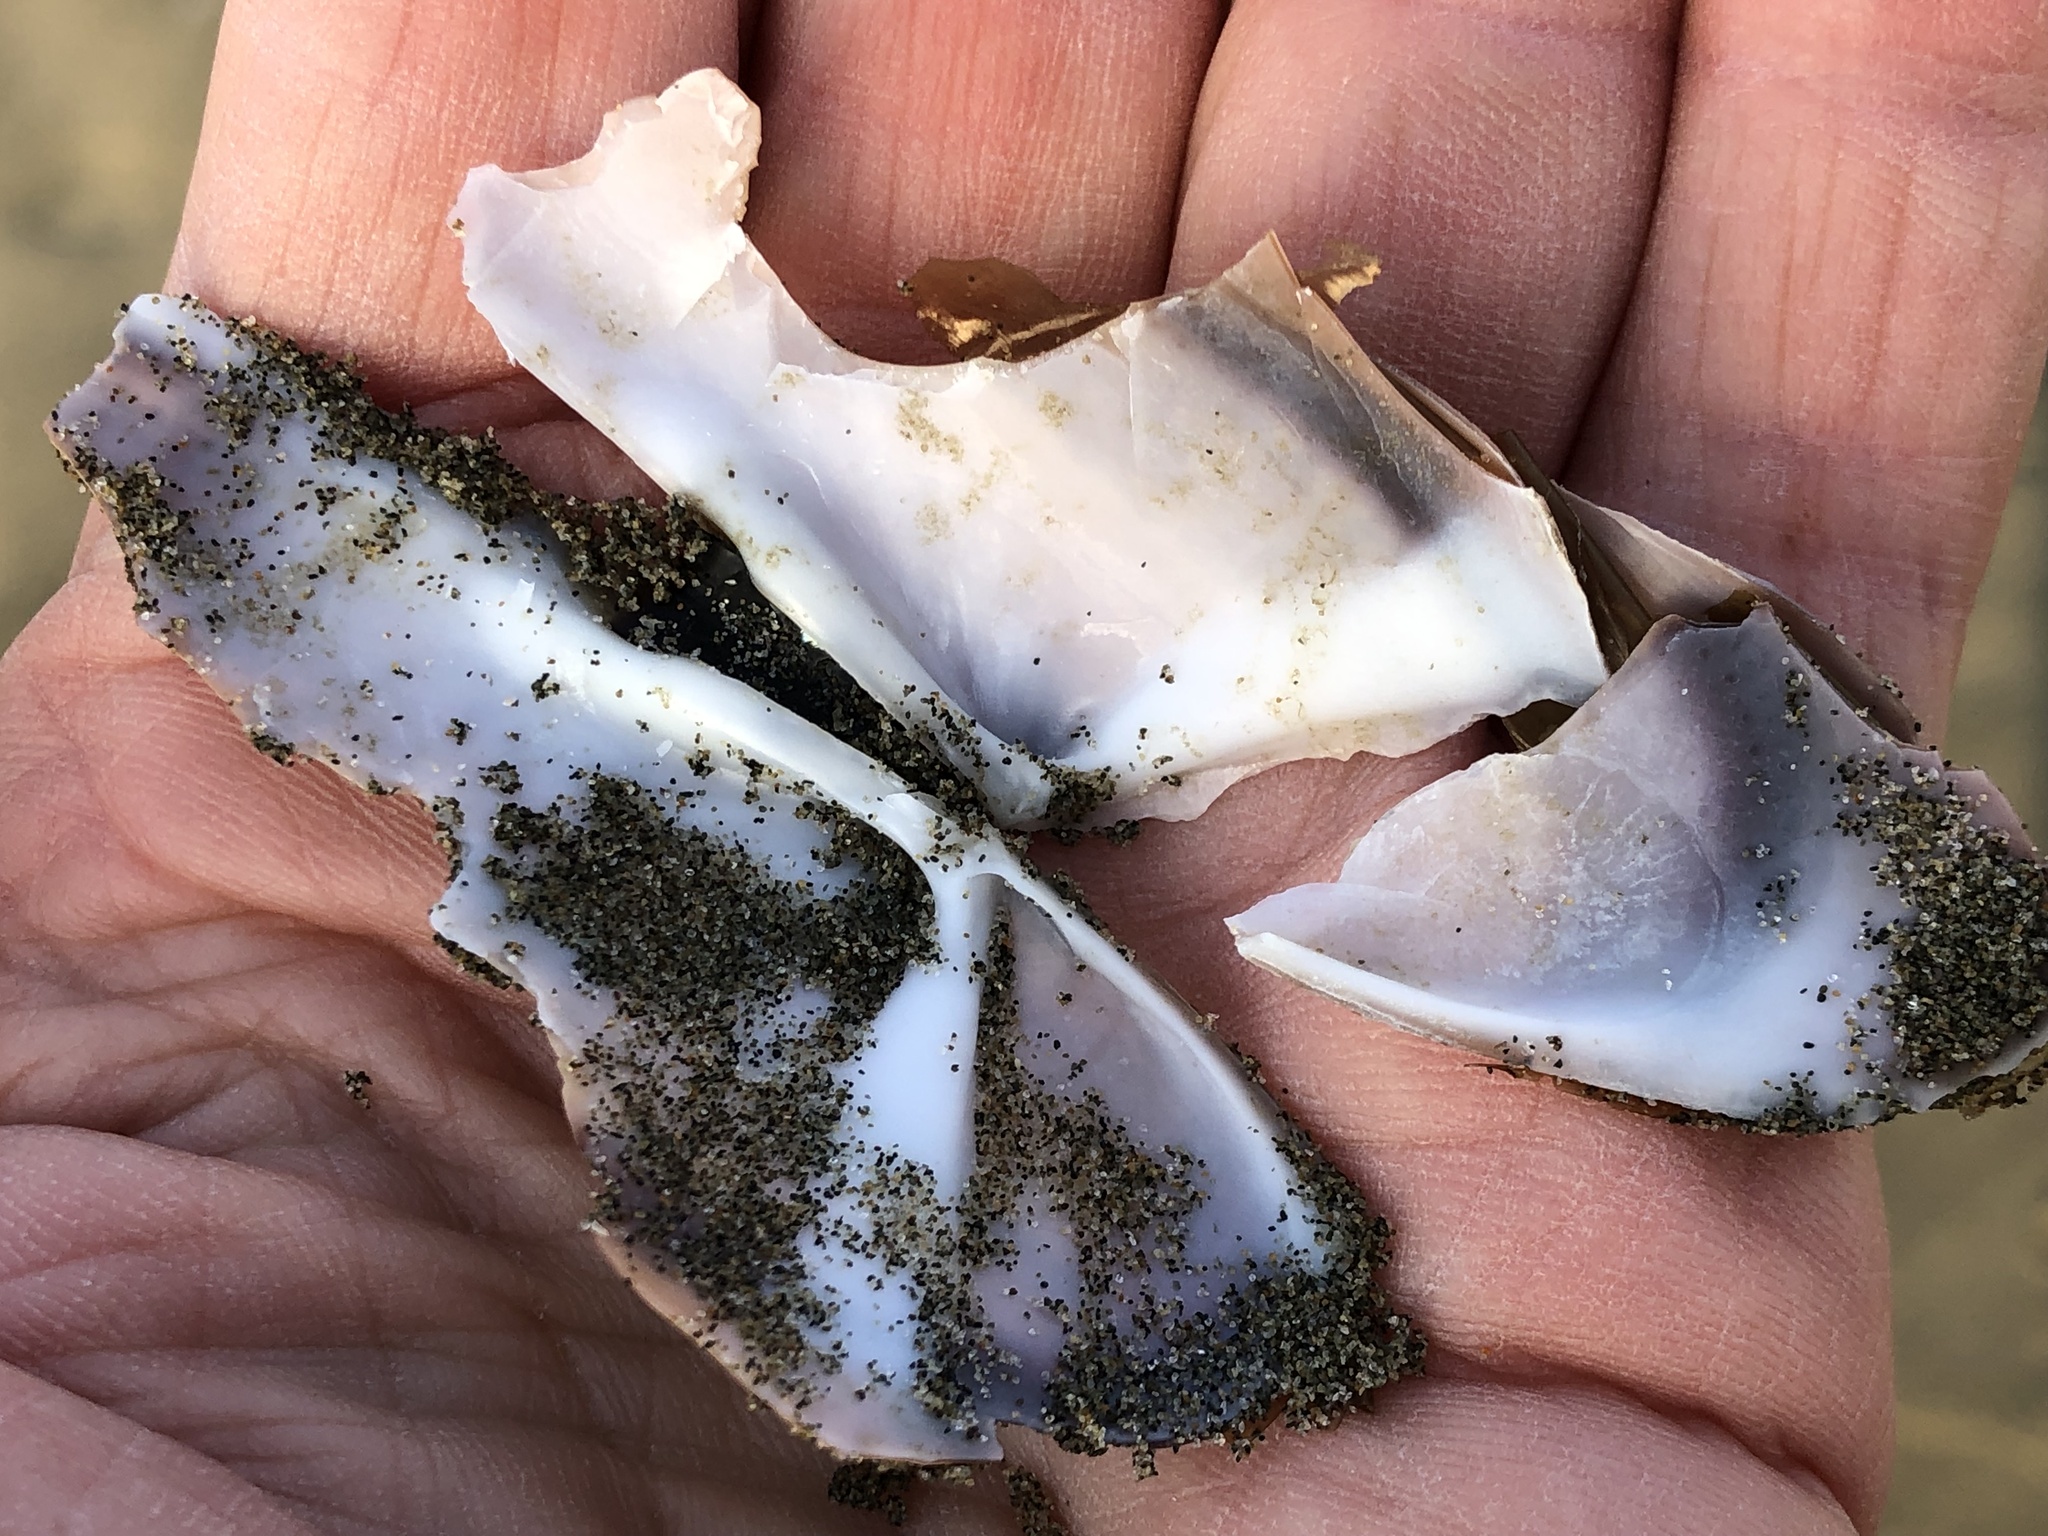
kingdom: Animalia
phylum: Mollusca
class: Bivalvia
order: Adapedonta
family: Pharidae
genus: Siliqua
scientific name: Siliqua patula
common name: Pacific razor clam
